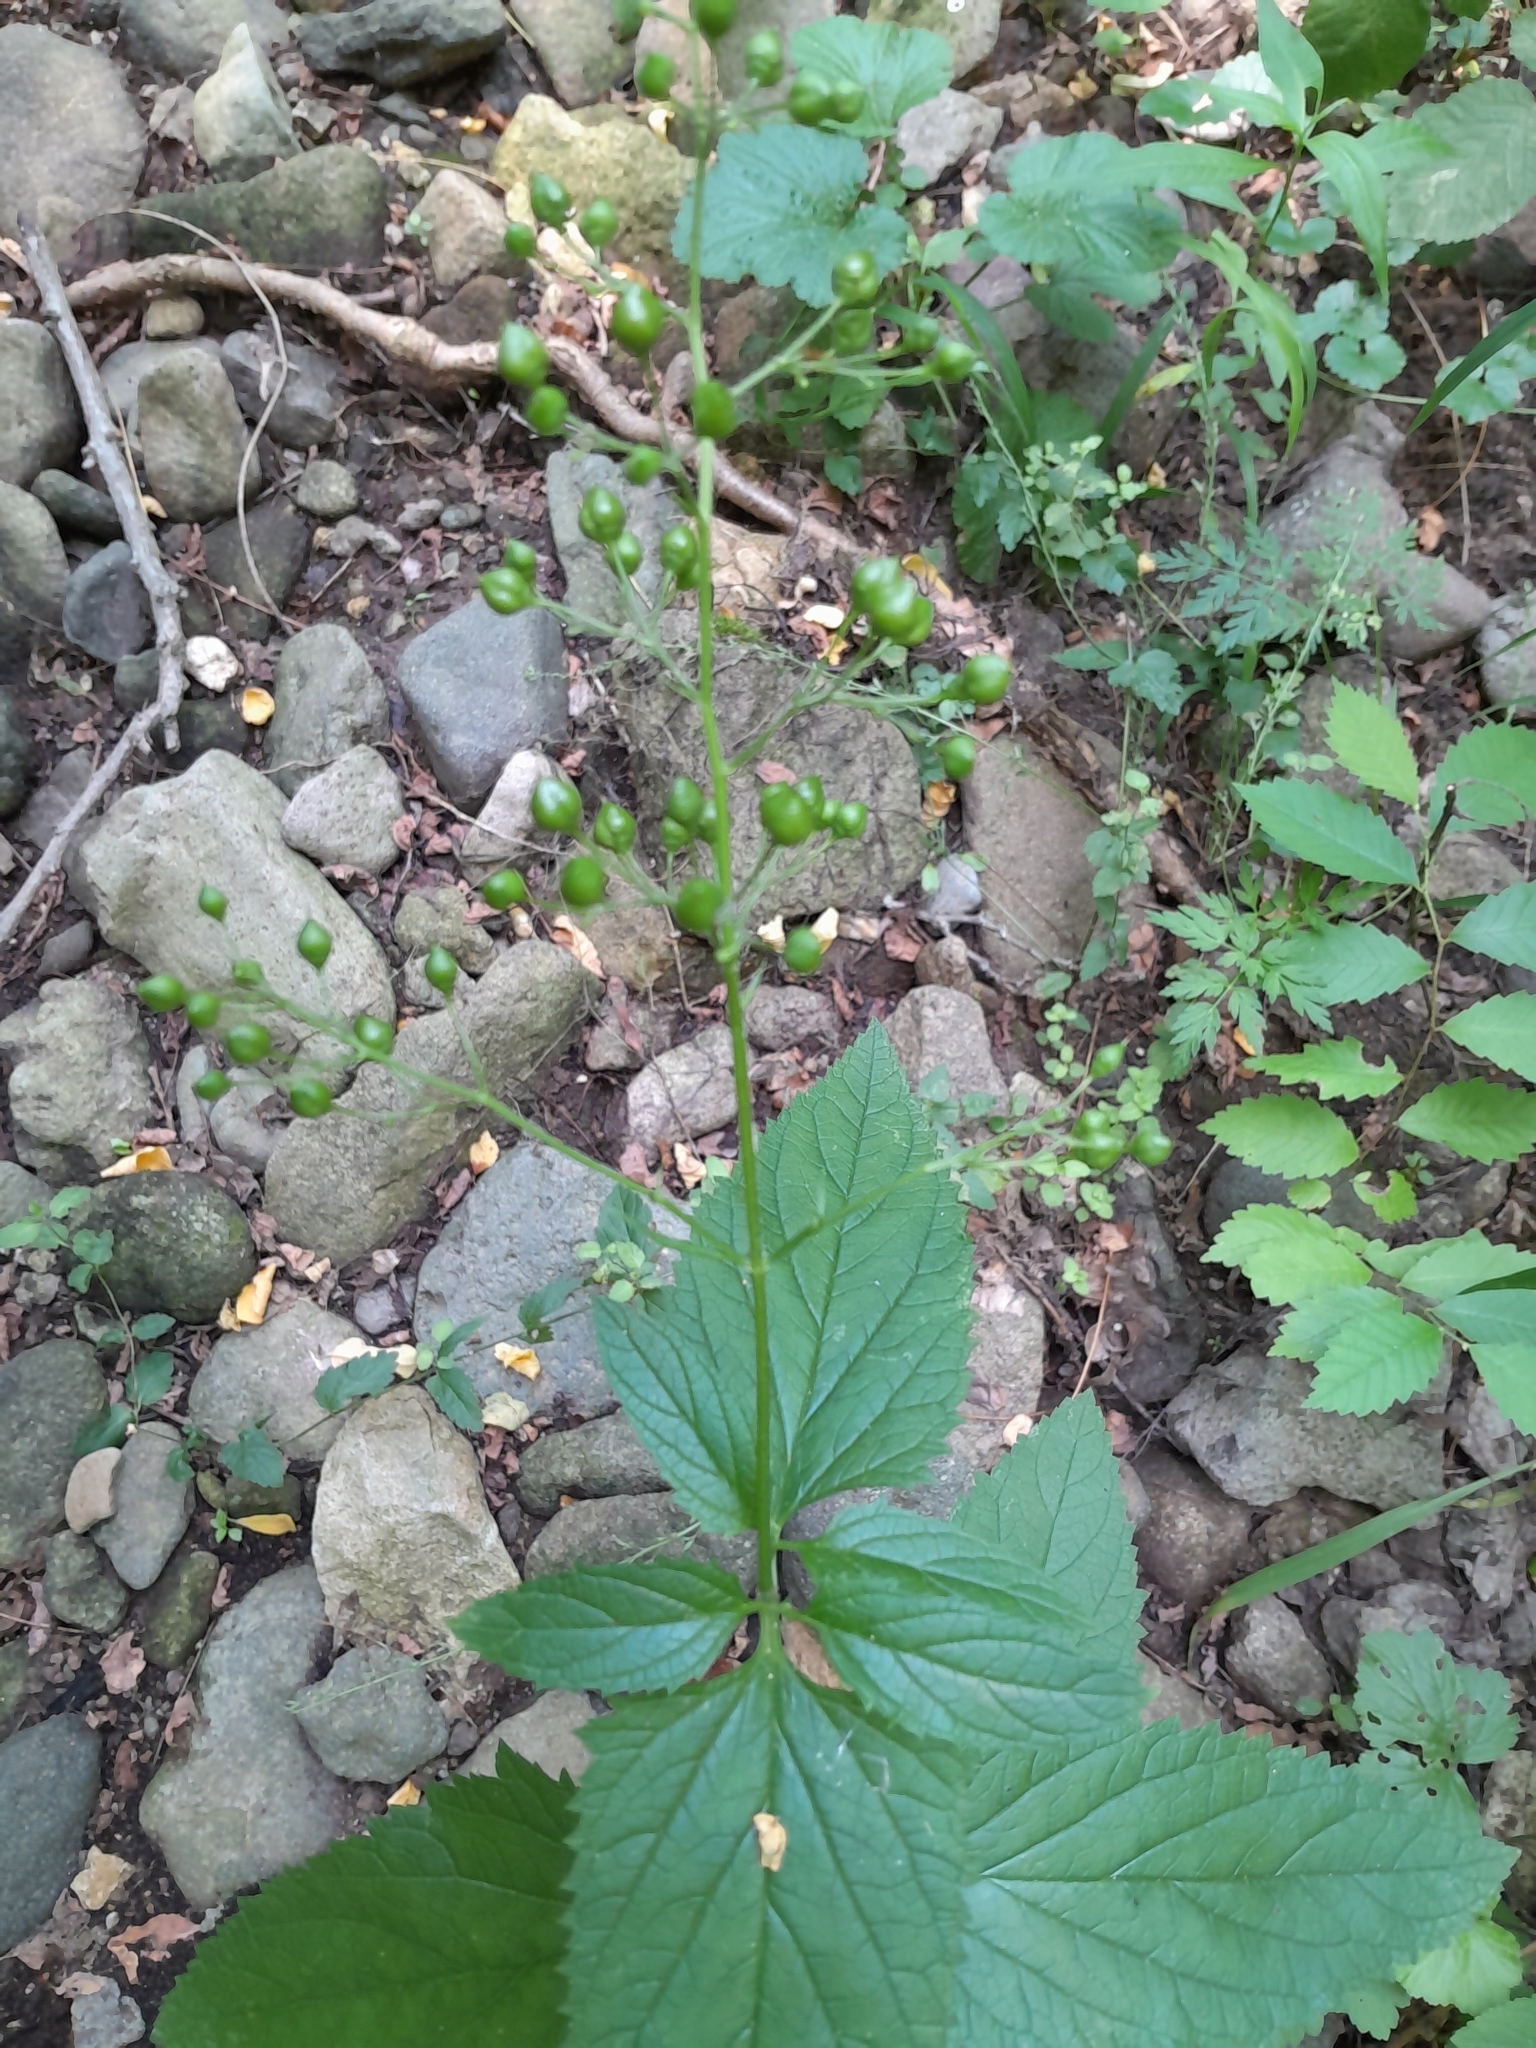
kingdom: Plantae
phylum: Tracheophyta
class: Magnoliopsida
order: Lamiales
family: Scrophulariaceae
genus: Scrophularia
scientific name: Scrophularia nodosa
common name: Common figwort
